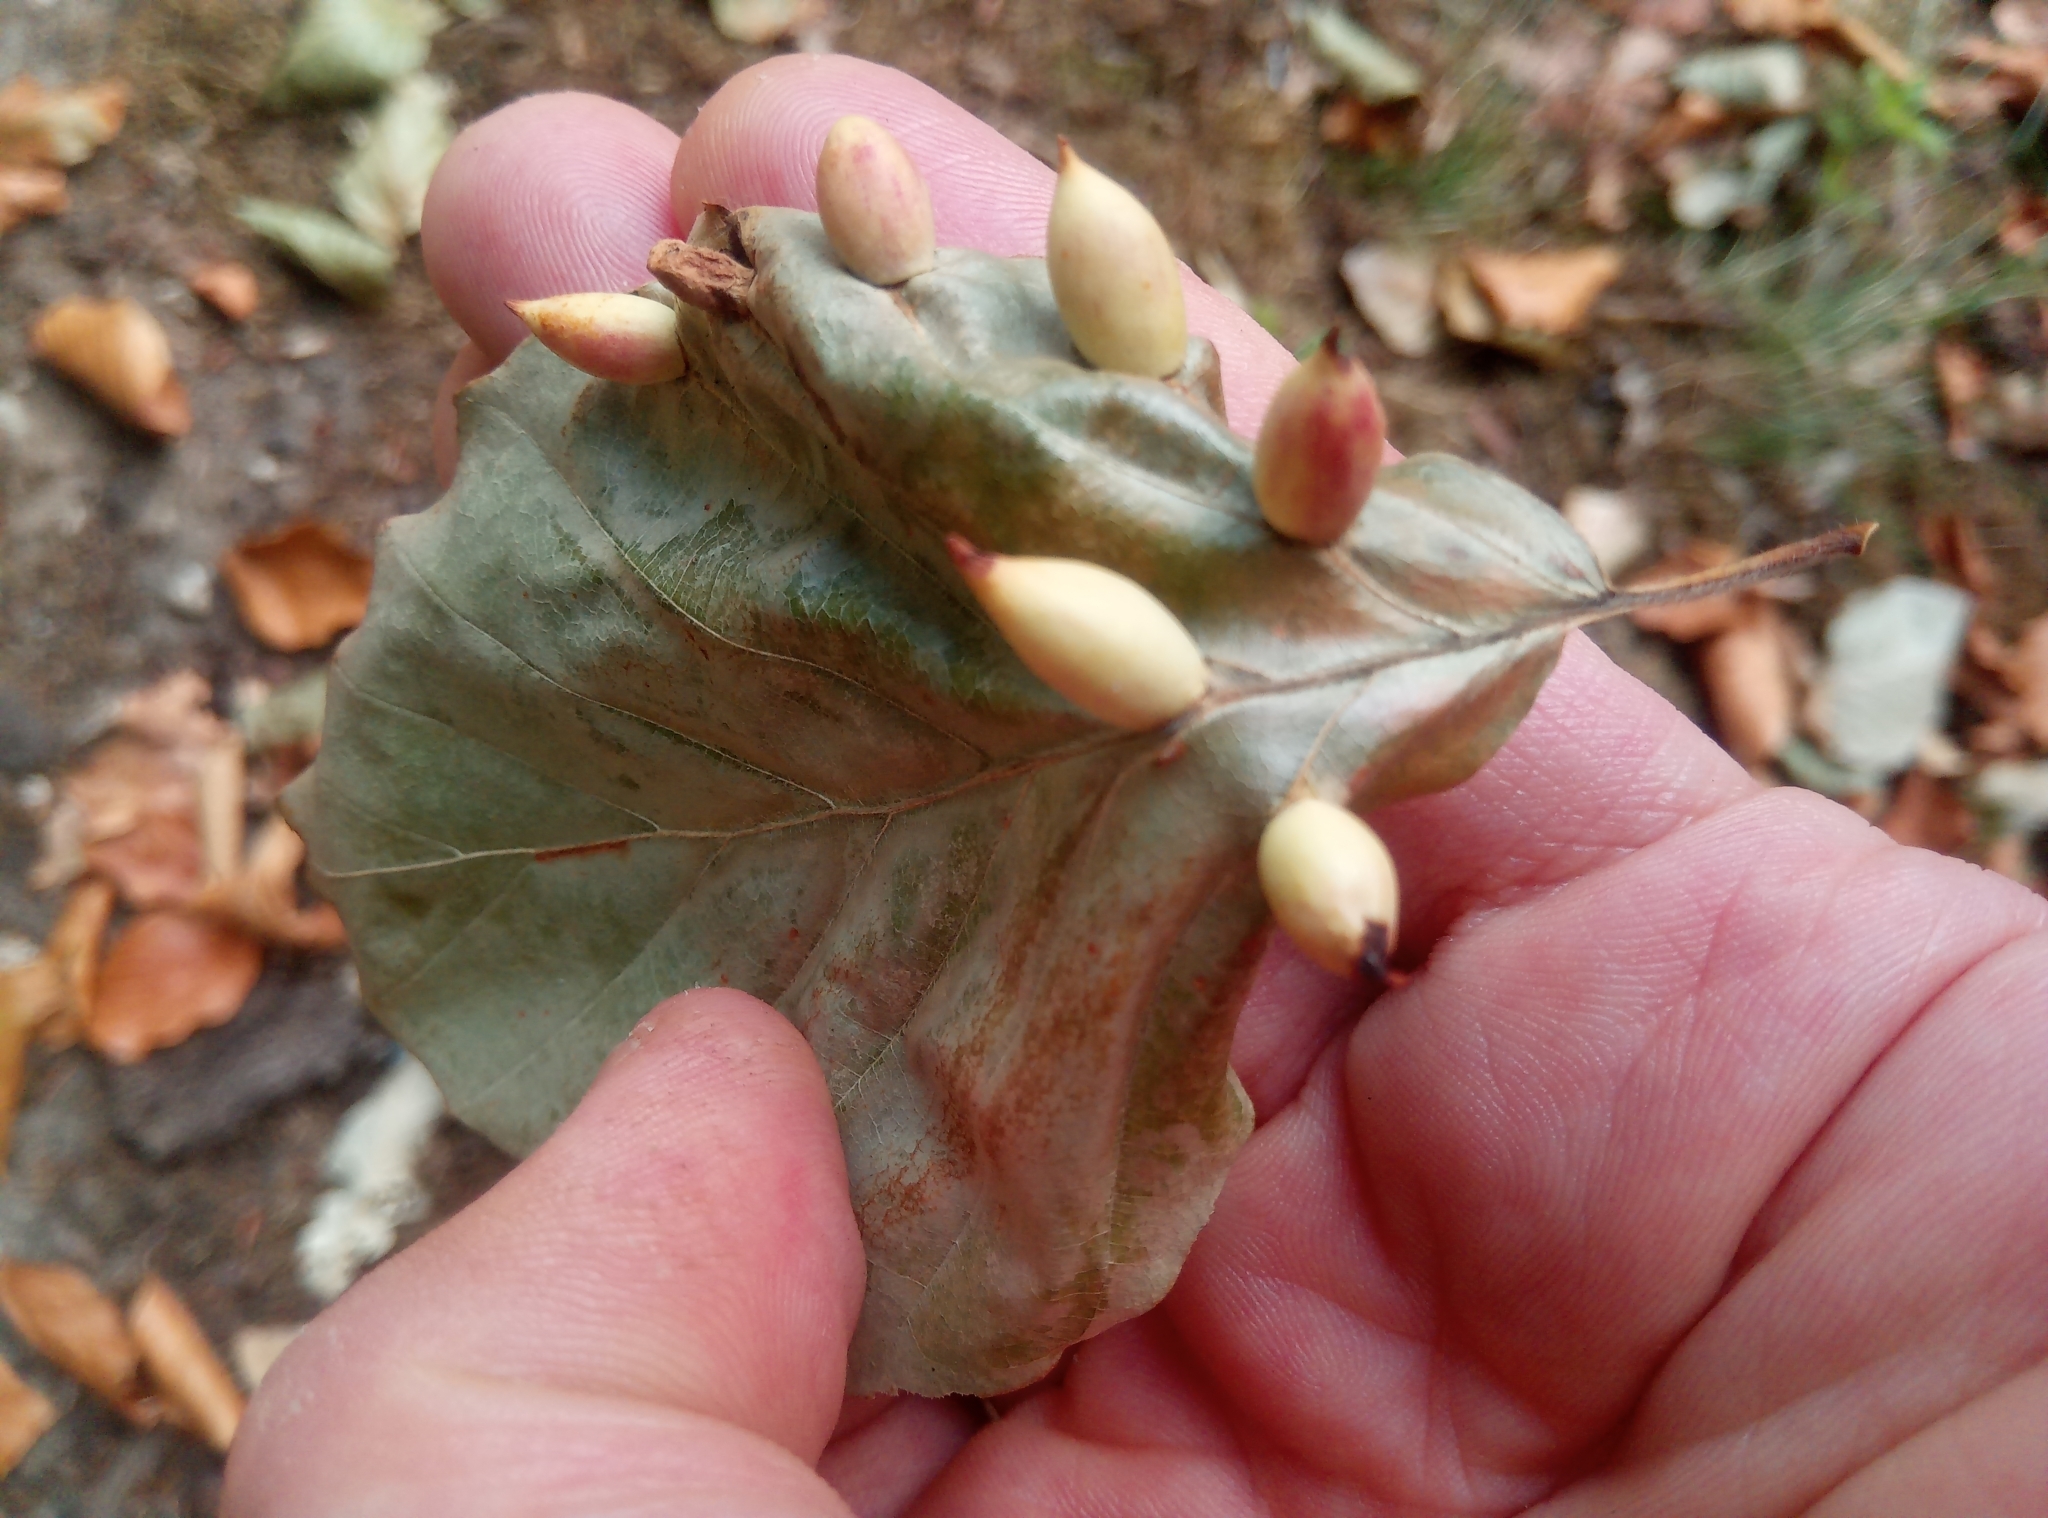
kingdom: Animalia
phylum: Arthropoda
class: Insecta
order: Diptera
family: Cecidomyiidae
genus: Mikiola
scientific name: Mikiola fagi
